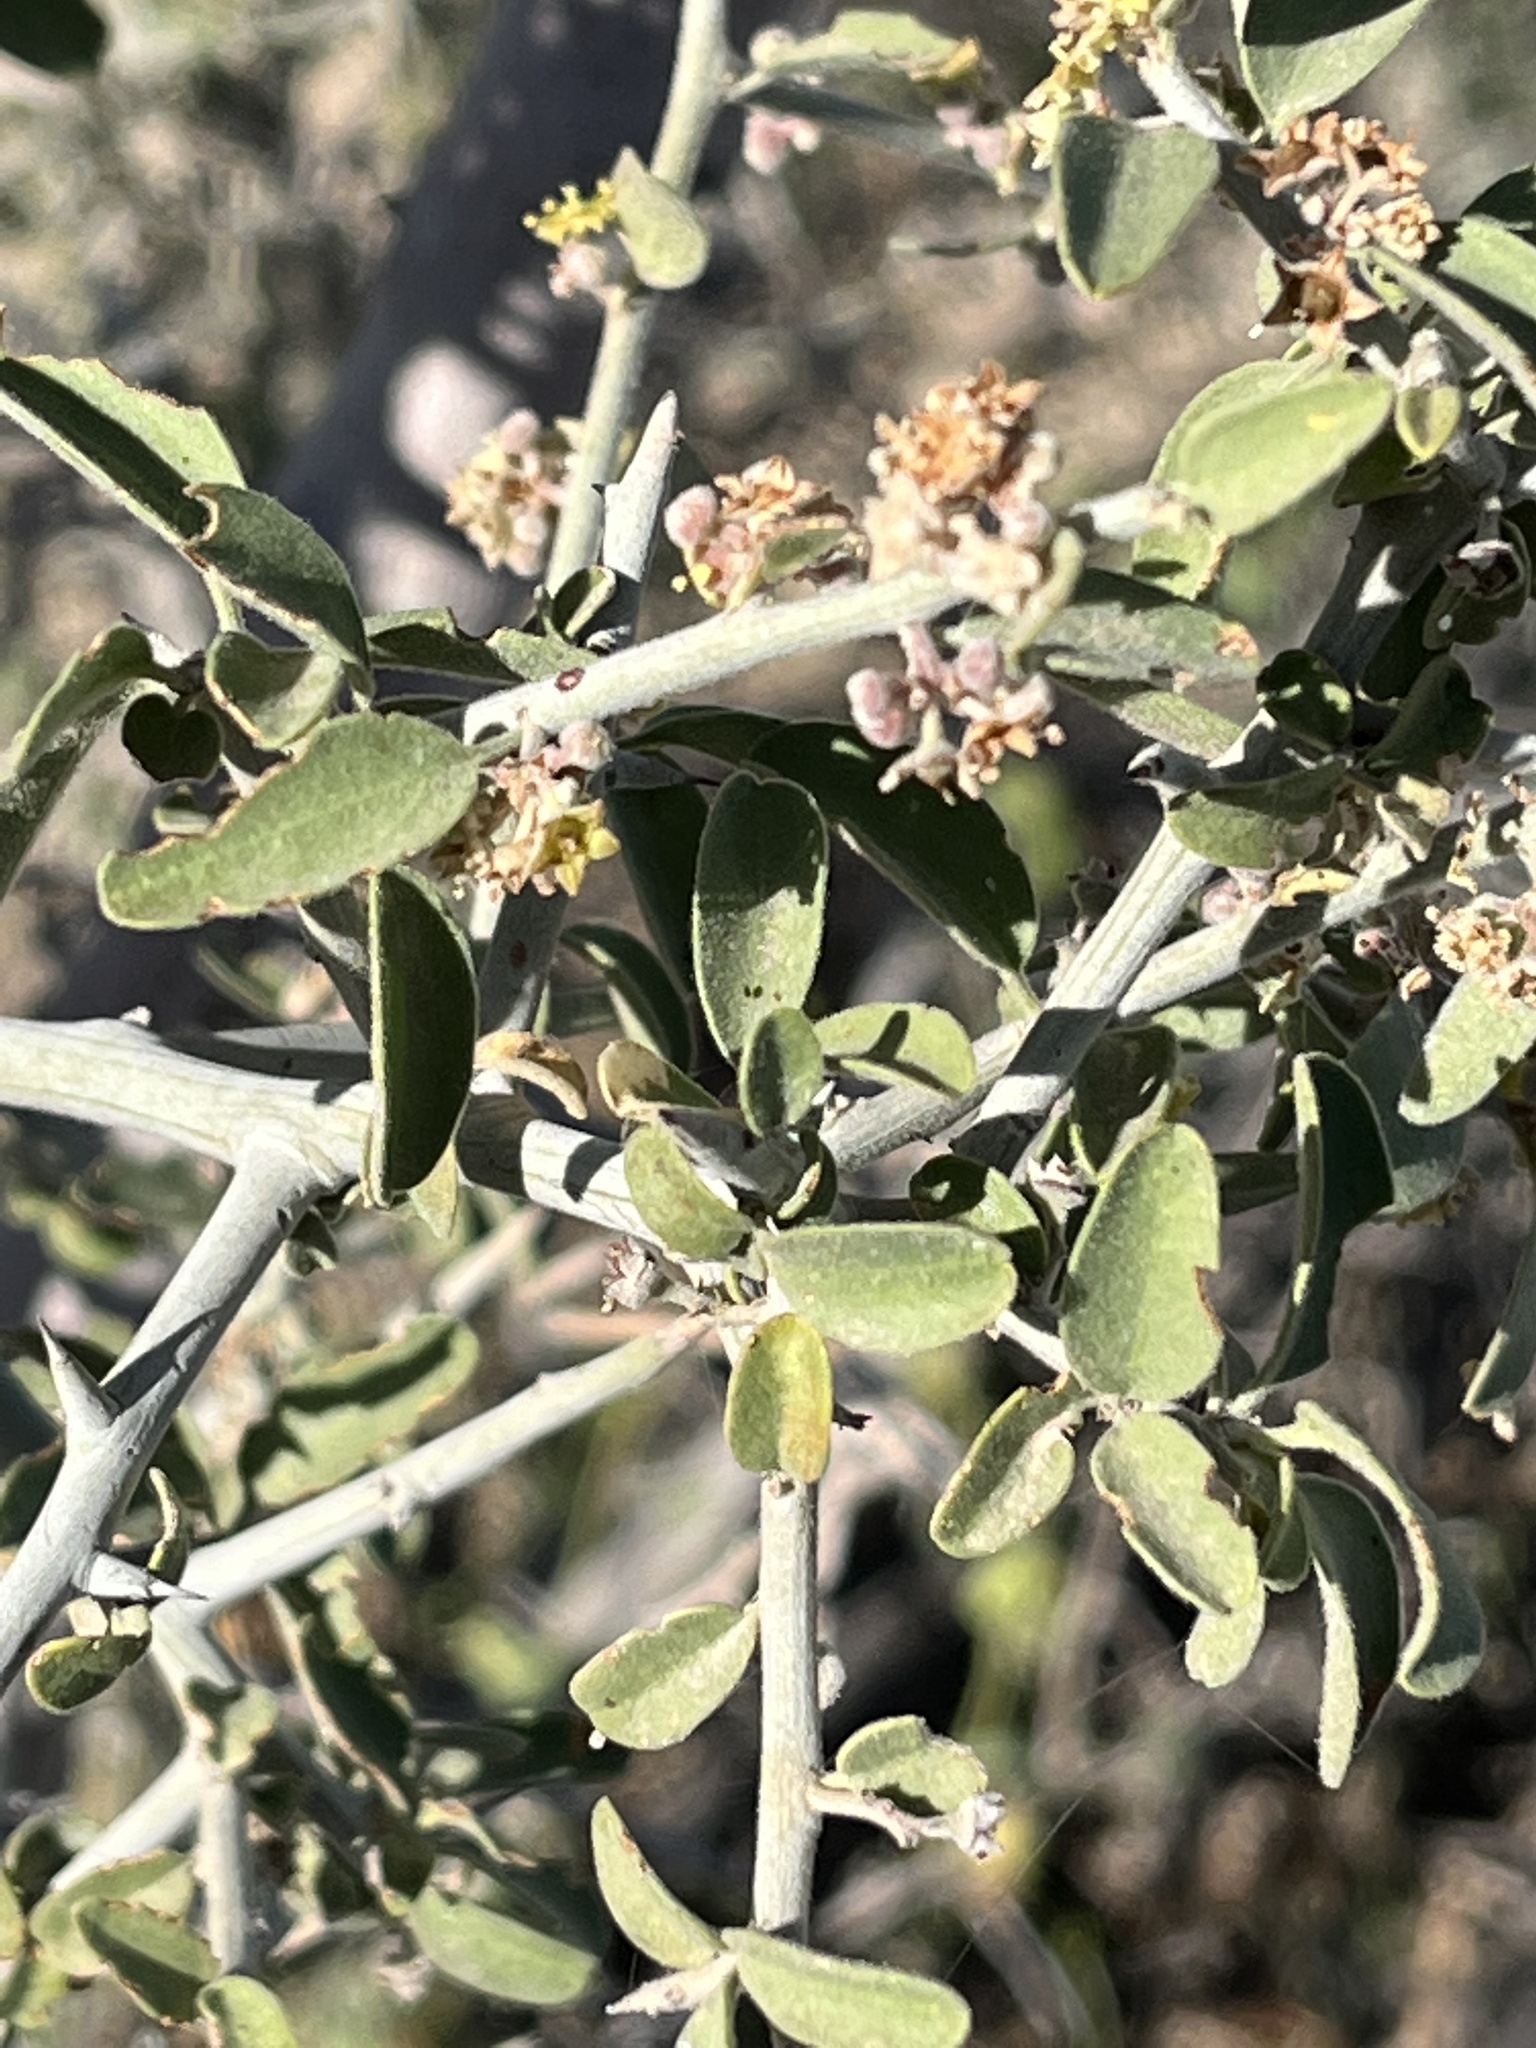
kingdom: Plantae
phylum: Tracheophyta
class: Magnoliopsida
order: Rosales
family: Rhamnaceae
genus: Sarcomphalus
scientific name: Sarcomphalus obtusifolius
